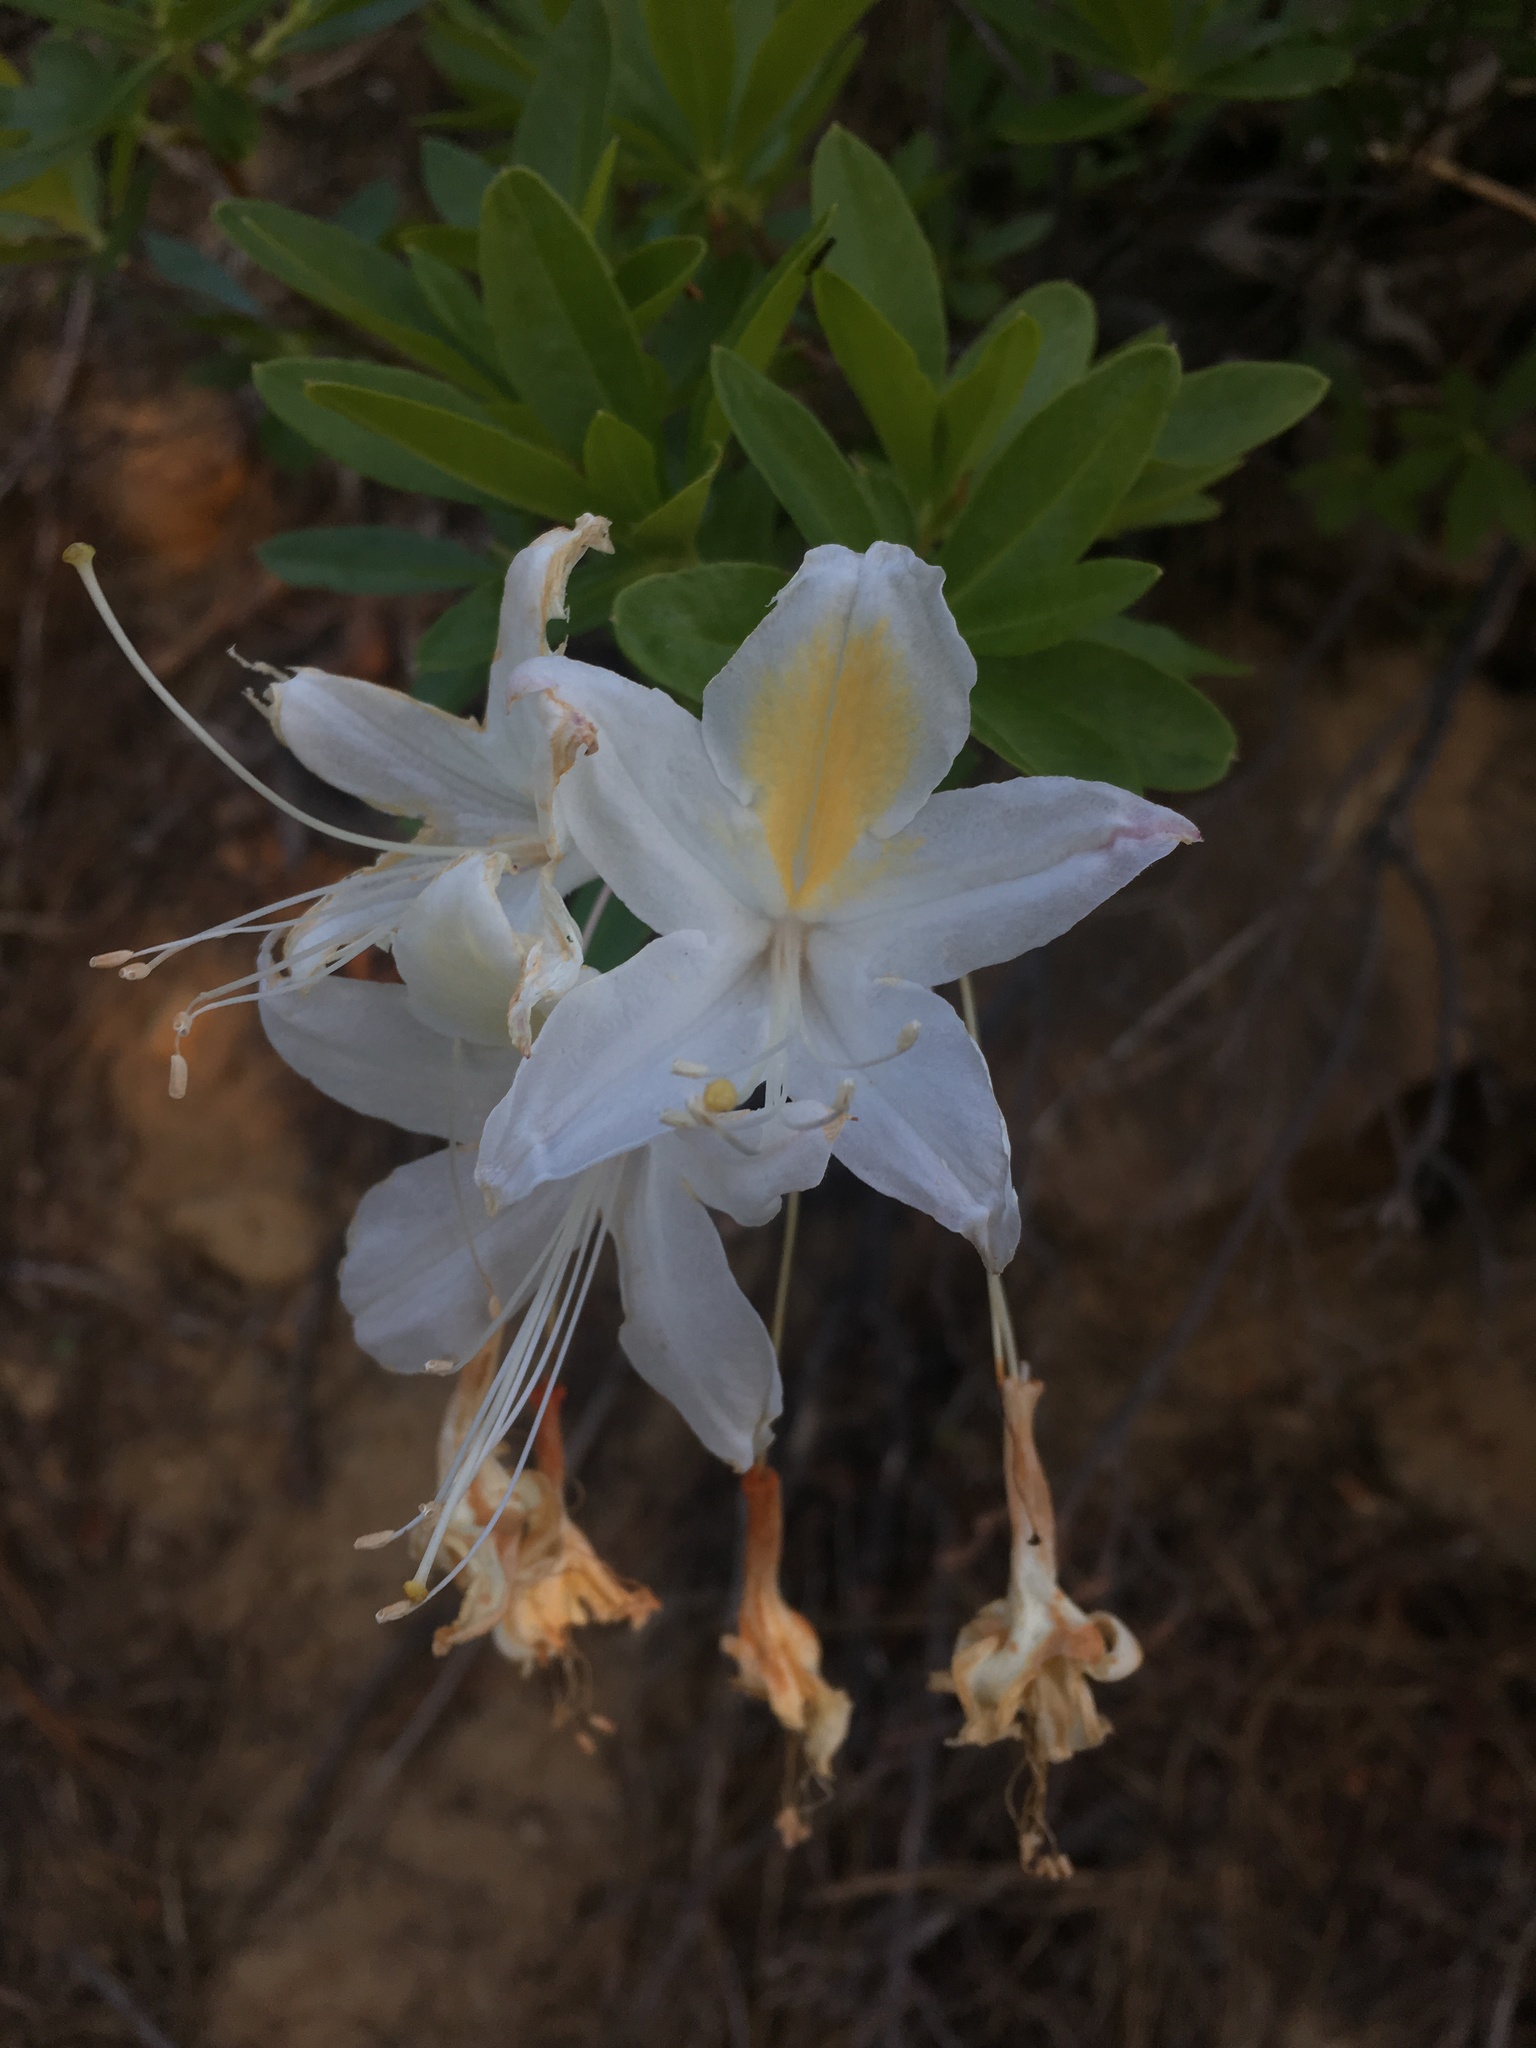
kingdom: Plantae
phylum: Tracheophyta
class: Magnoliopsida
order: Ericales
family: Ericaceae
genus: Rhododendron
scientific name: Rhododendron occidentale
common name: Western azalea
